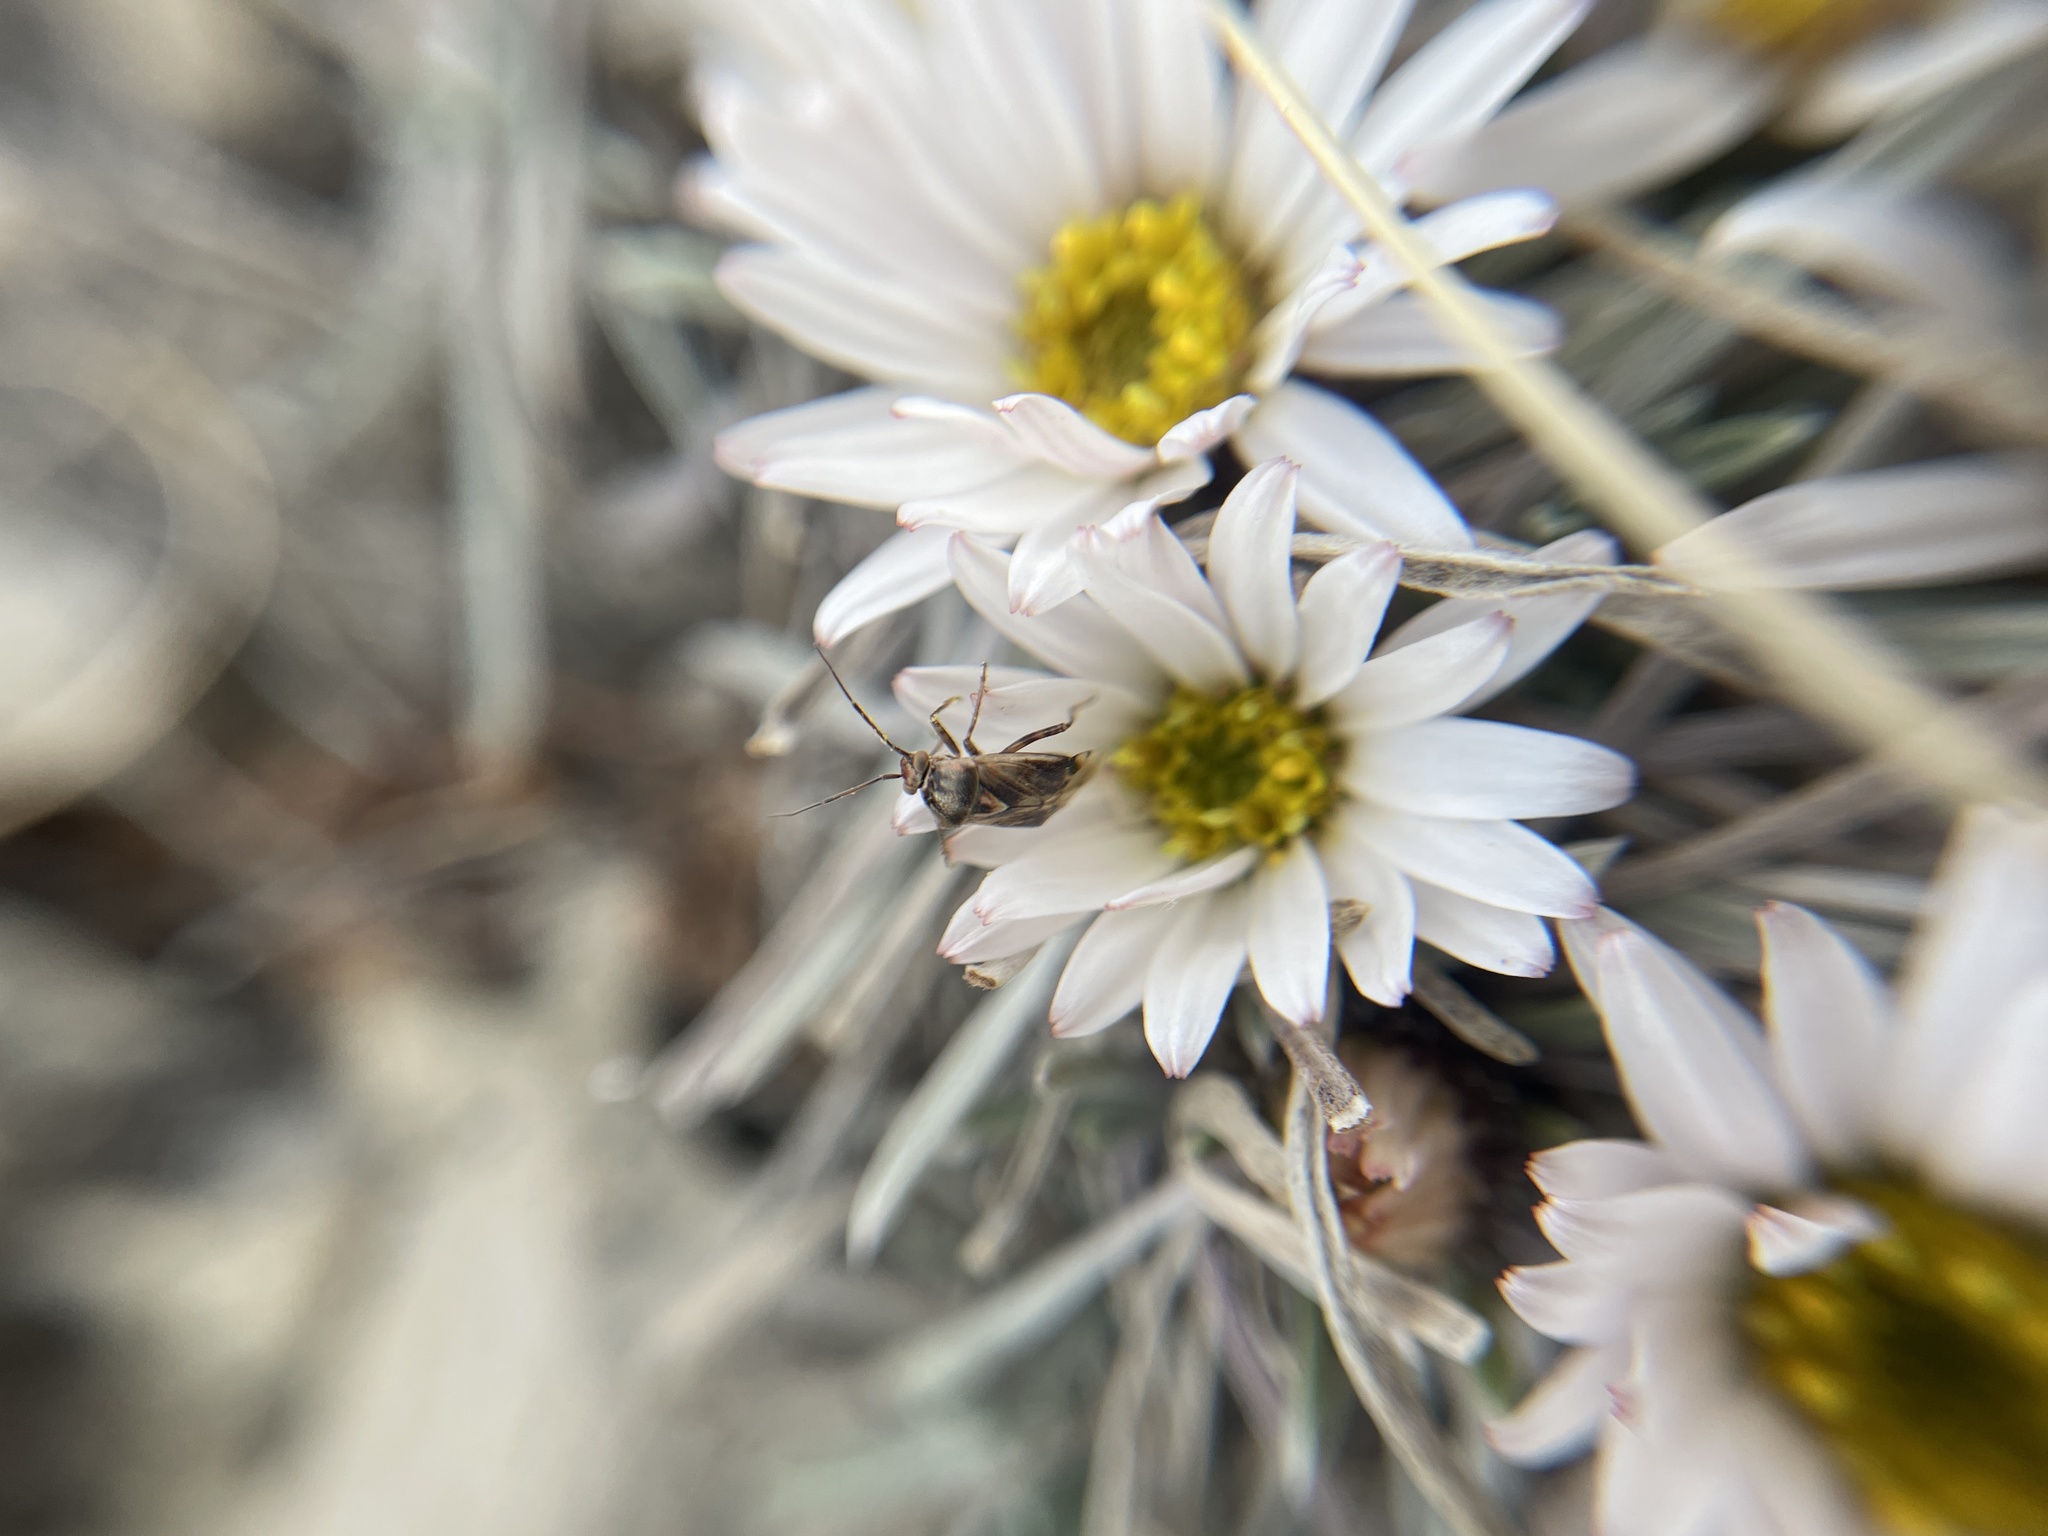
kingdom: Plantae
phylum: Tracheophyta
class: Magnoliopsida
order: Asterales
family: Asteraceae
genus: Townsendia
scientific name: Townsendia hookeri
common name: Hooker's townsend daisy
